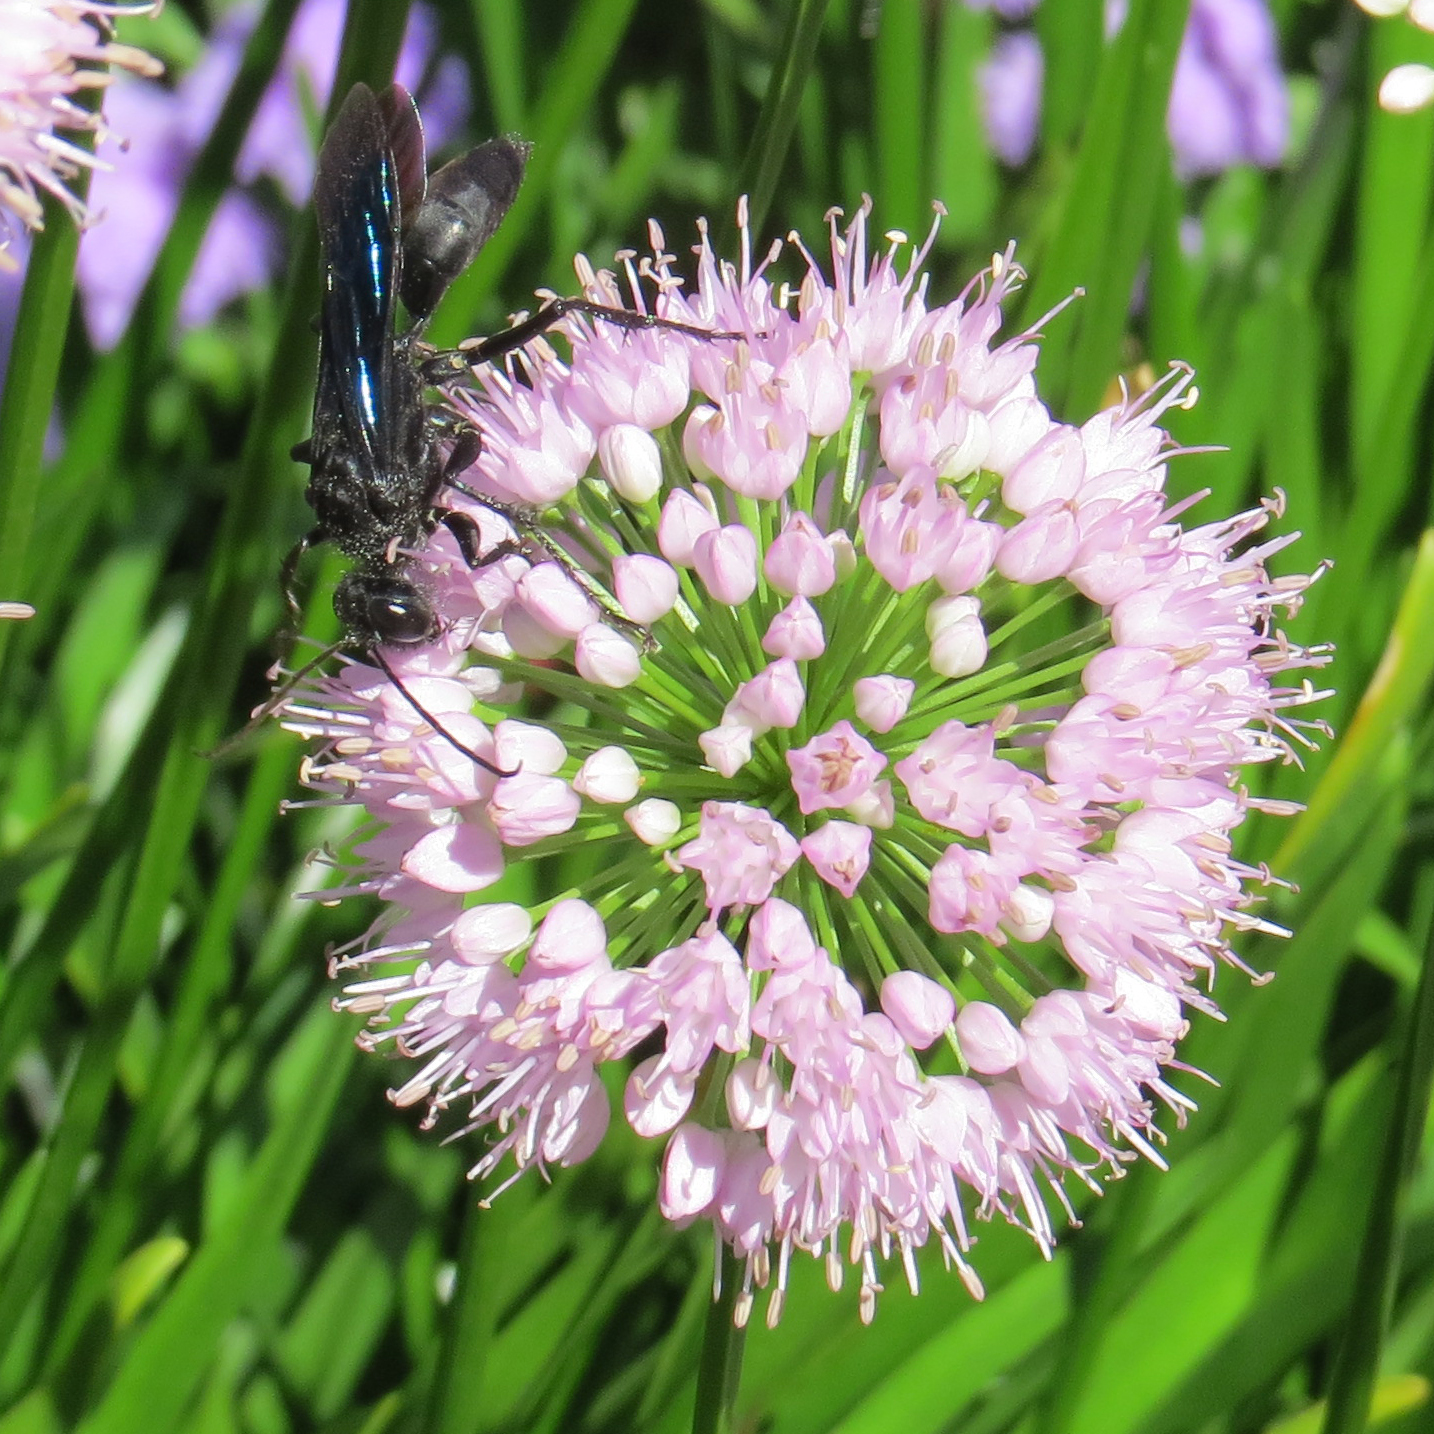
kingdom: Animalia
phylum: Arthropoda
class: Insecta
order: Hymenoptera
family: Sphecidae
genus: Sphex
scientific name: Sphex pensylvanicus
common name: Great black digger wasp
